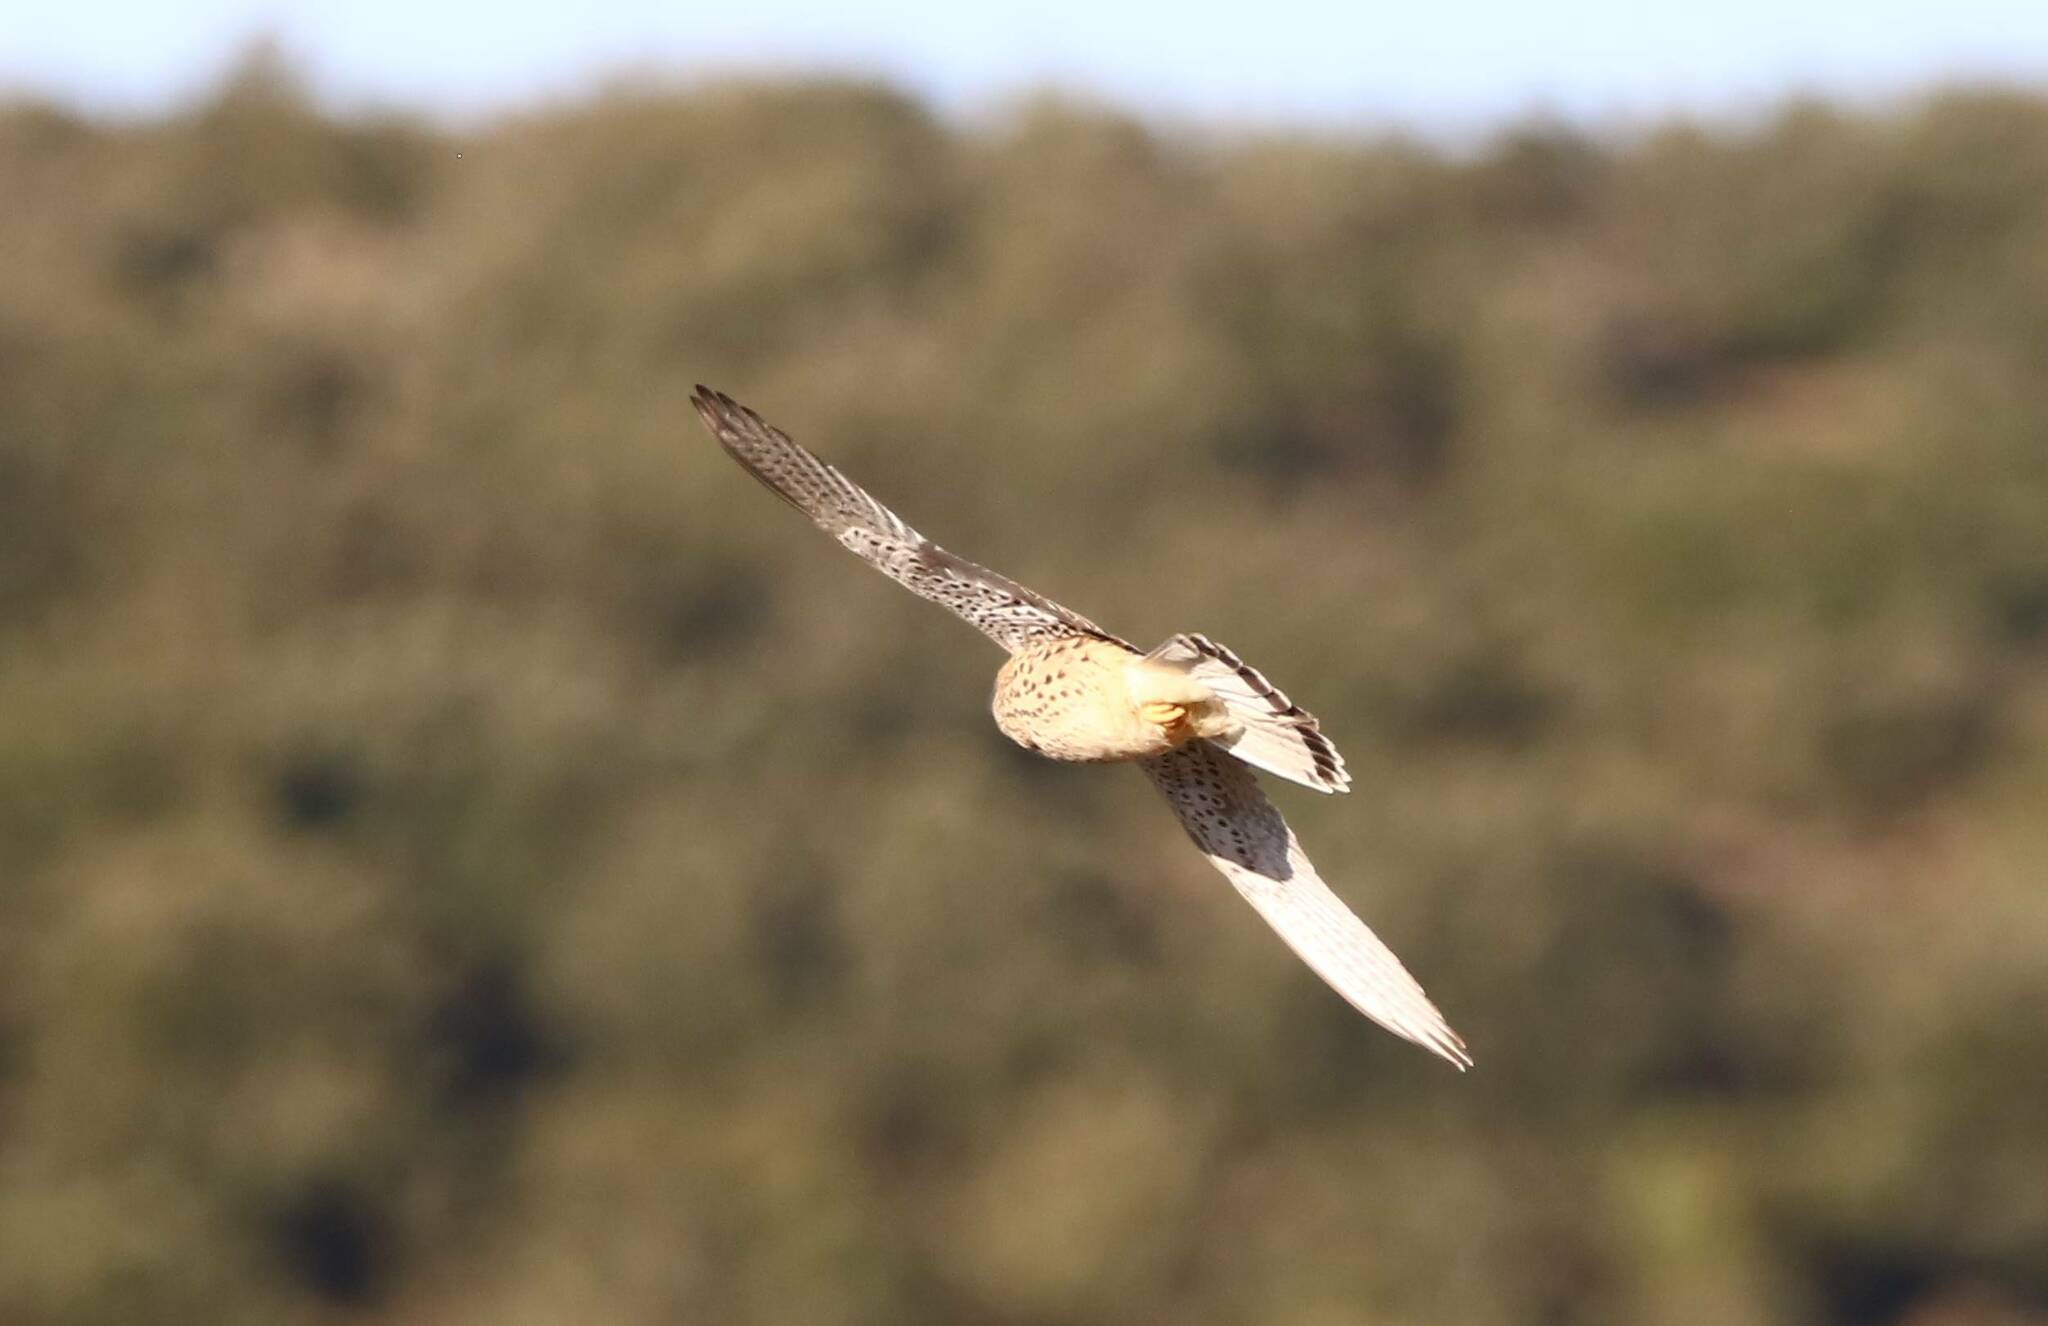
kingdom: Animalia
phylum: Chordata
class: Aves
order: Falconiformes
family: Falconidae
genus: Falco
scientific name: Falco naumanni
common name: Lesser kestrel
